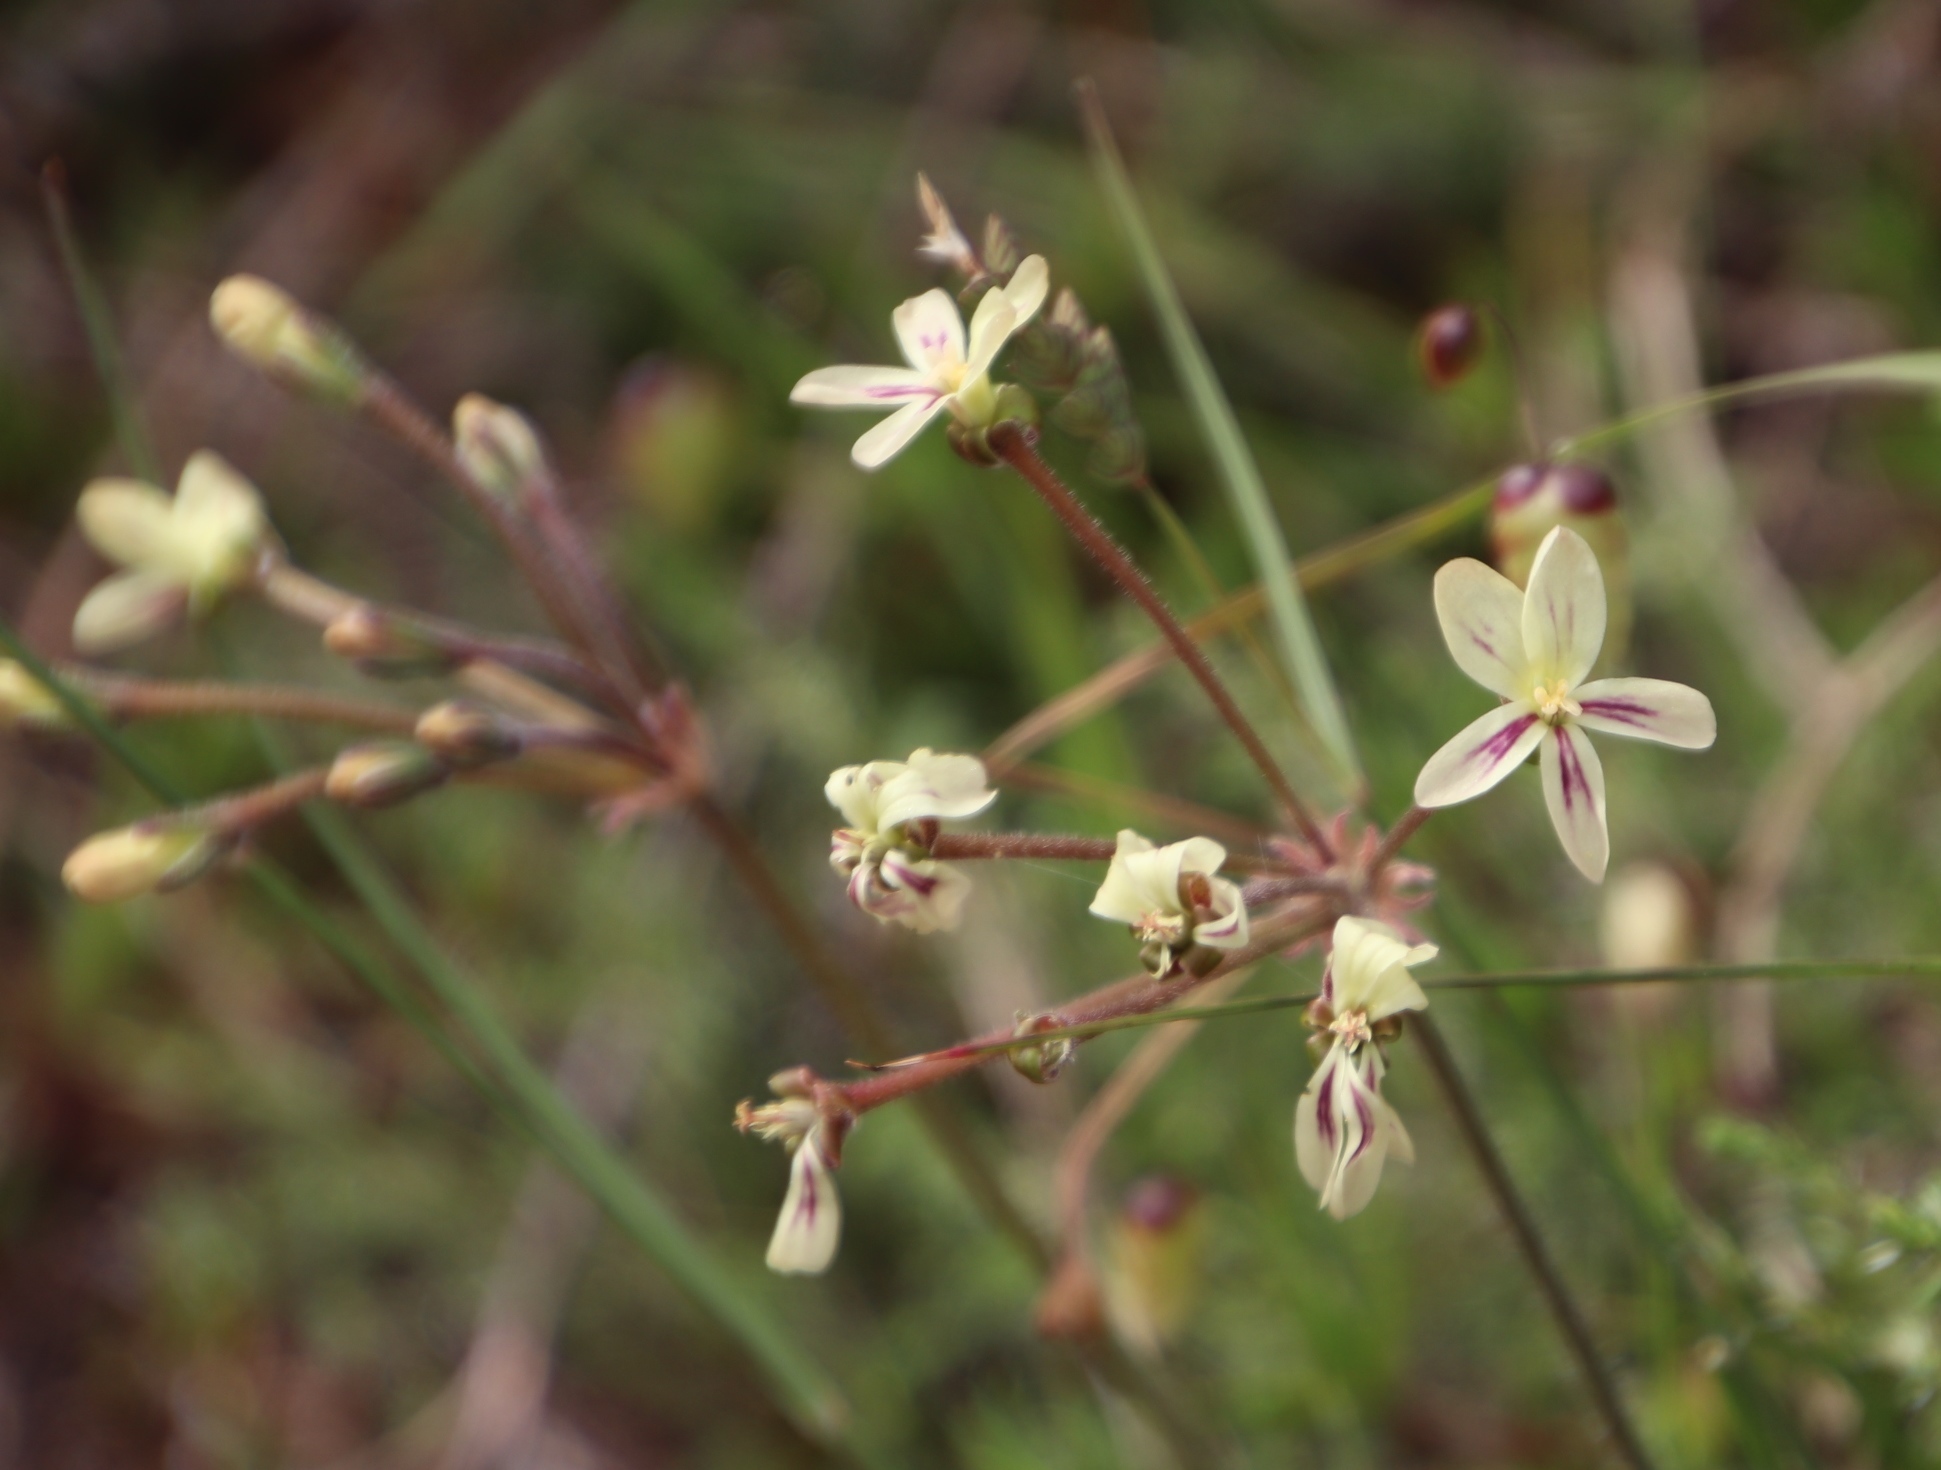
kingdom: Plantae
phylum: Tracheophyta
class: Magnoliopsida
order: Geraniales
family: Geraniaceae
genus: Pelargonium
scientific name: Pelargonium triste
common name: Night-scent pelargonium
